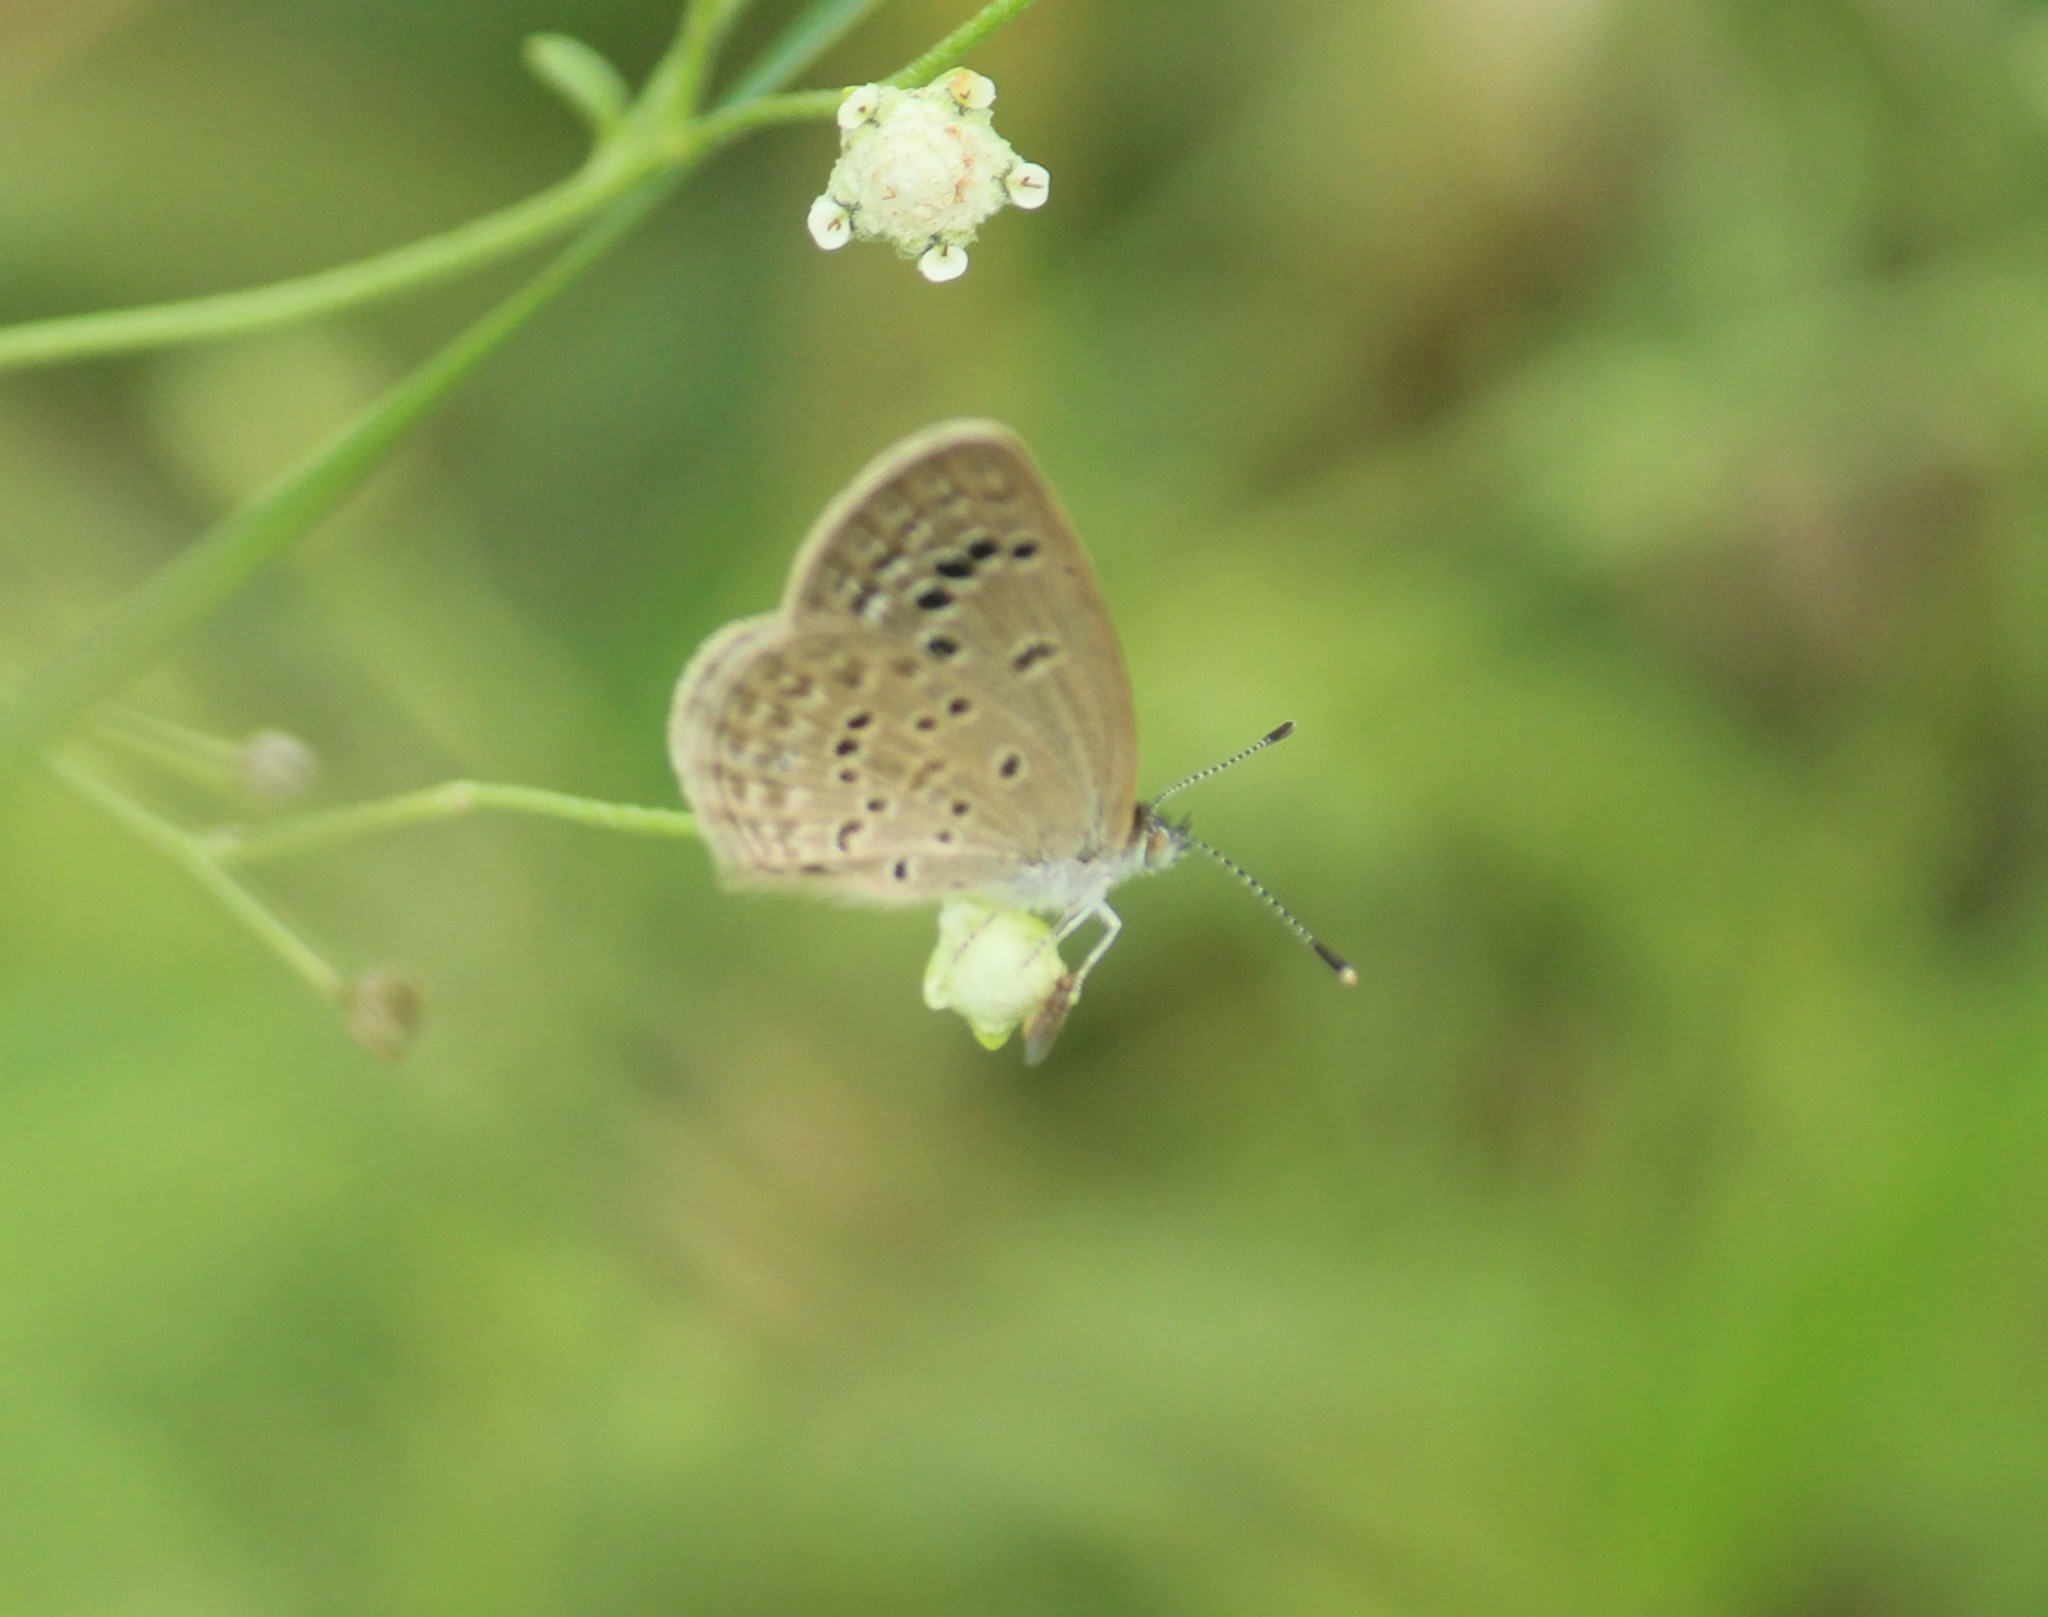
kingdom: Animalia
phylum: Arthropoda
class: Insecta
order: Lepidoptera
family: Lycaenidae
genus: Zizina
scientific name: Zizina otis
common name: Lesser grass blue
